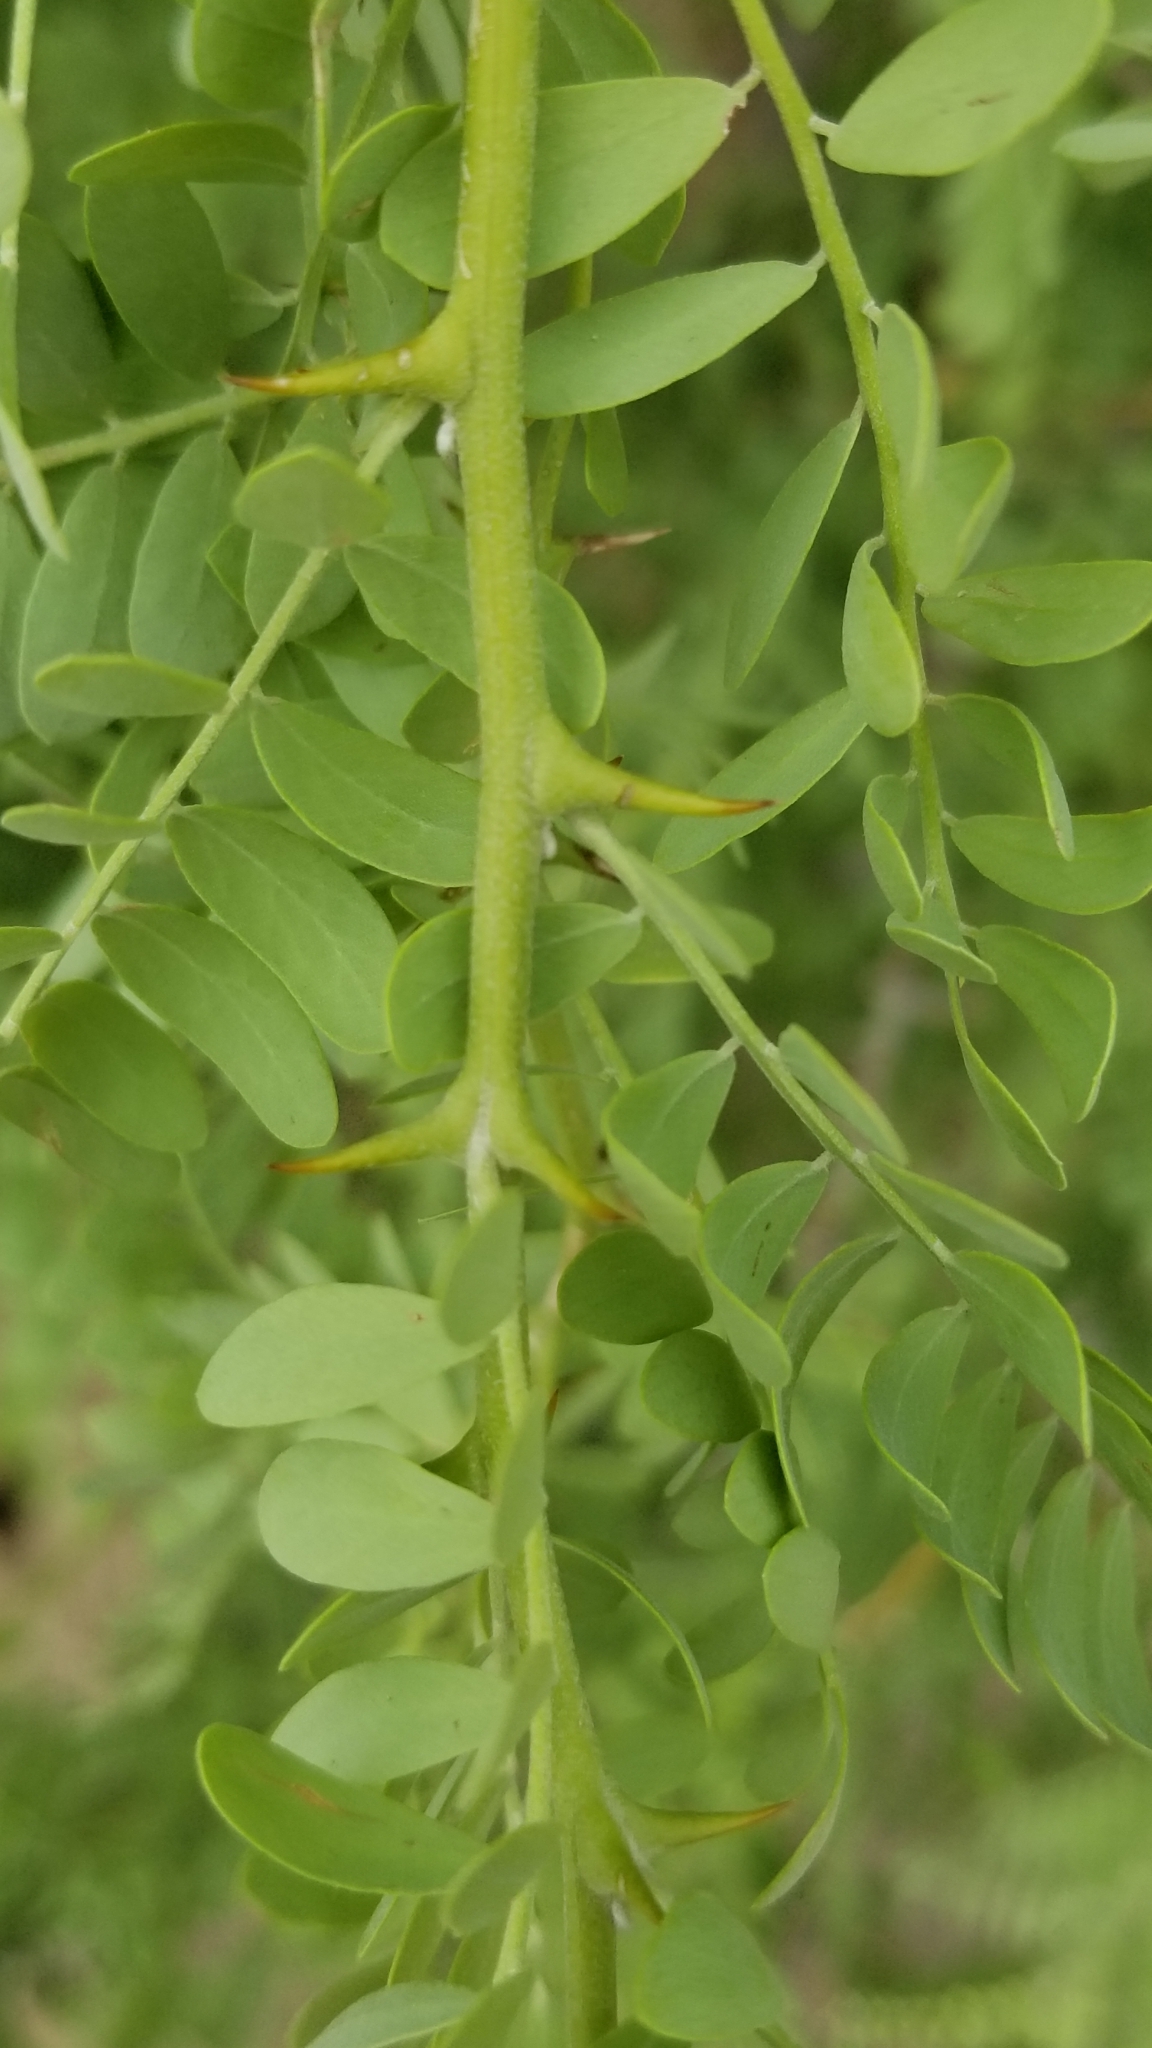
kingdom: Plantae
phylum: Tracheophyta
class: Magnoliopsida
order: Fabales
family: Fabaceae
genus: Olneya
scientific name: Olneya tesota
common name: Desert ironwood
